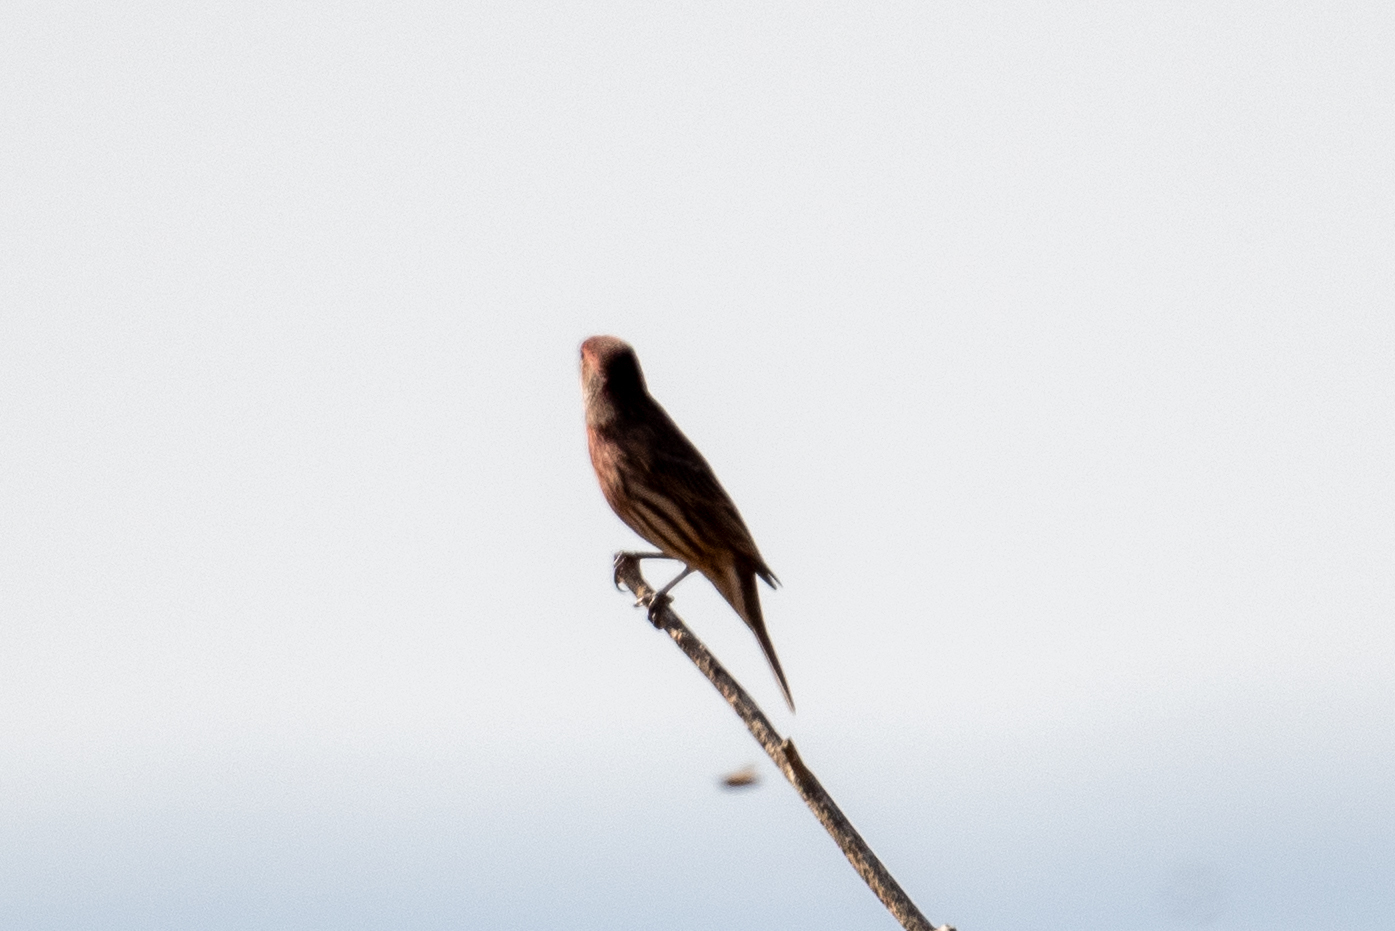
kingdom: Animalia
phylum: Chordata
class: Aves
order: Passeriformes
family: Fringillidae
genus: Haemorhous
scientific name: Haemorhous mexicanus
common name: House finch
